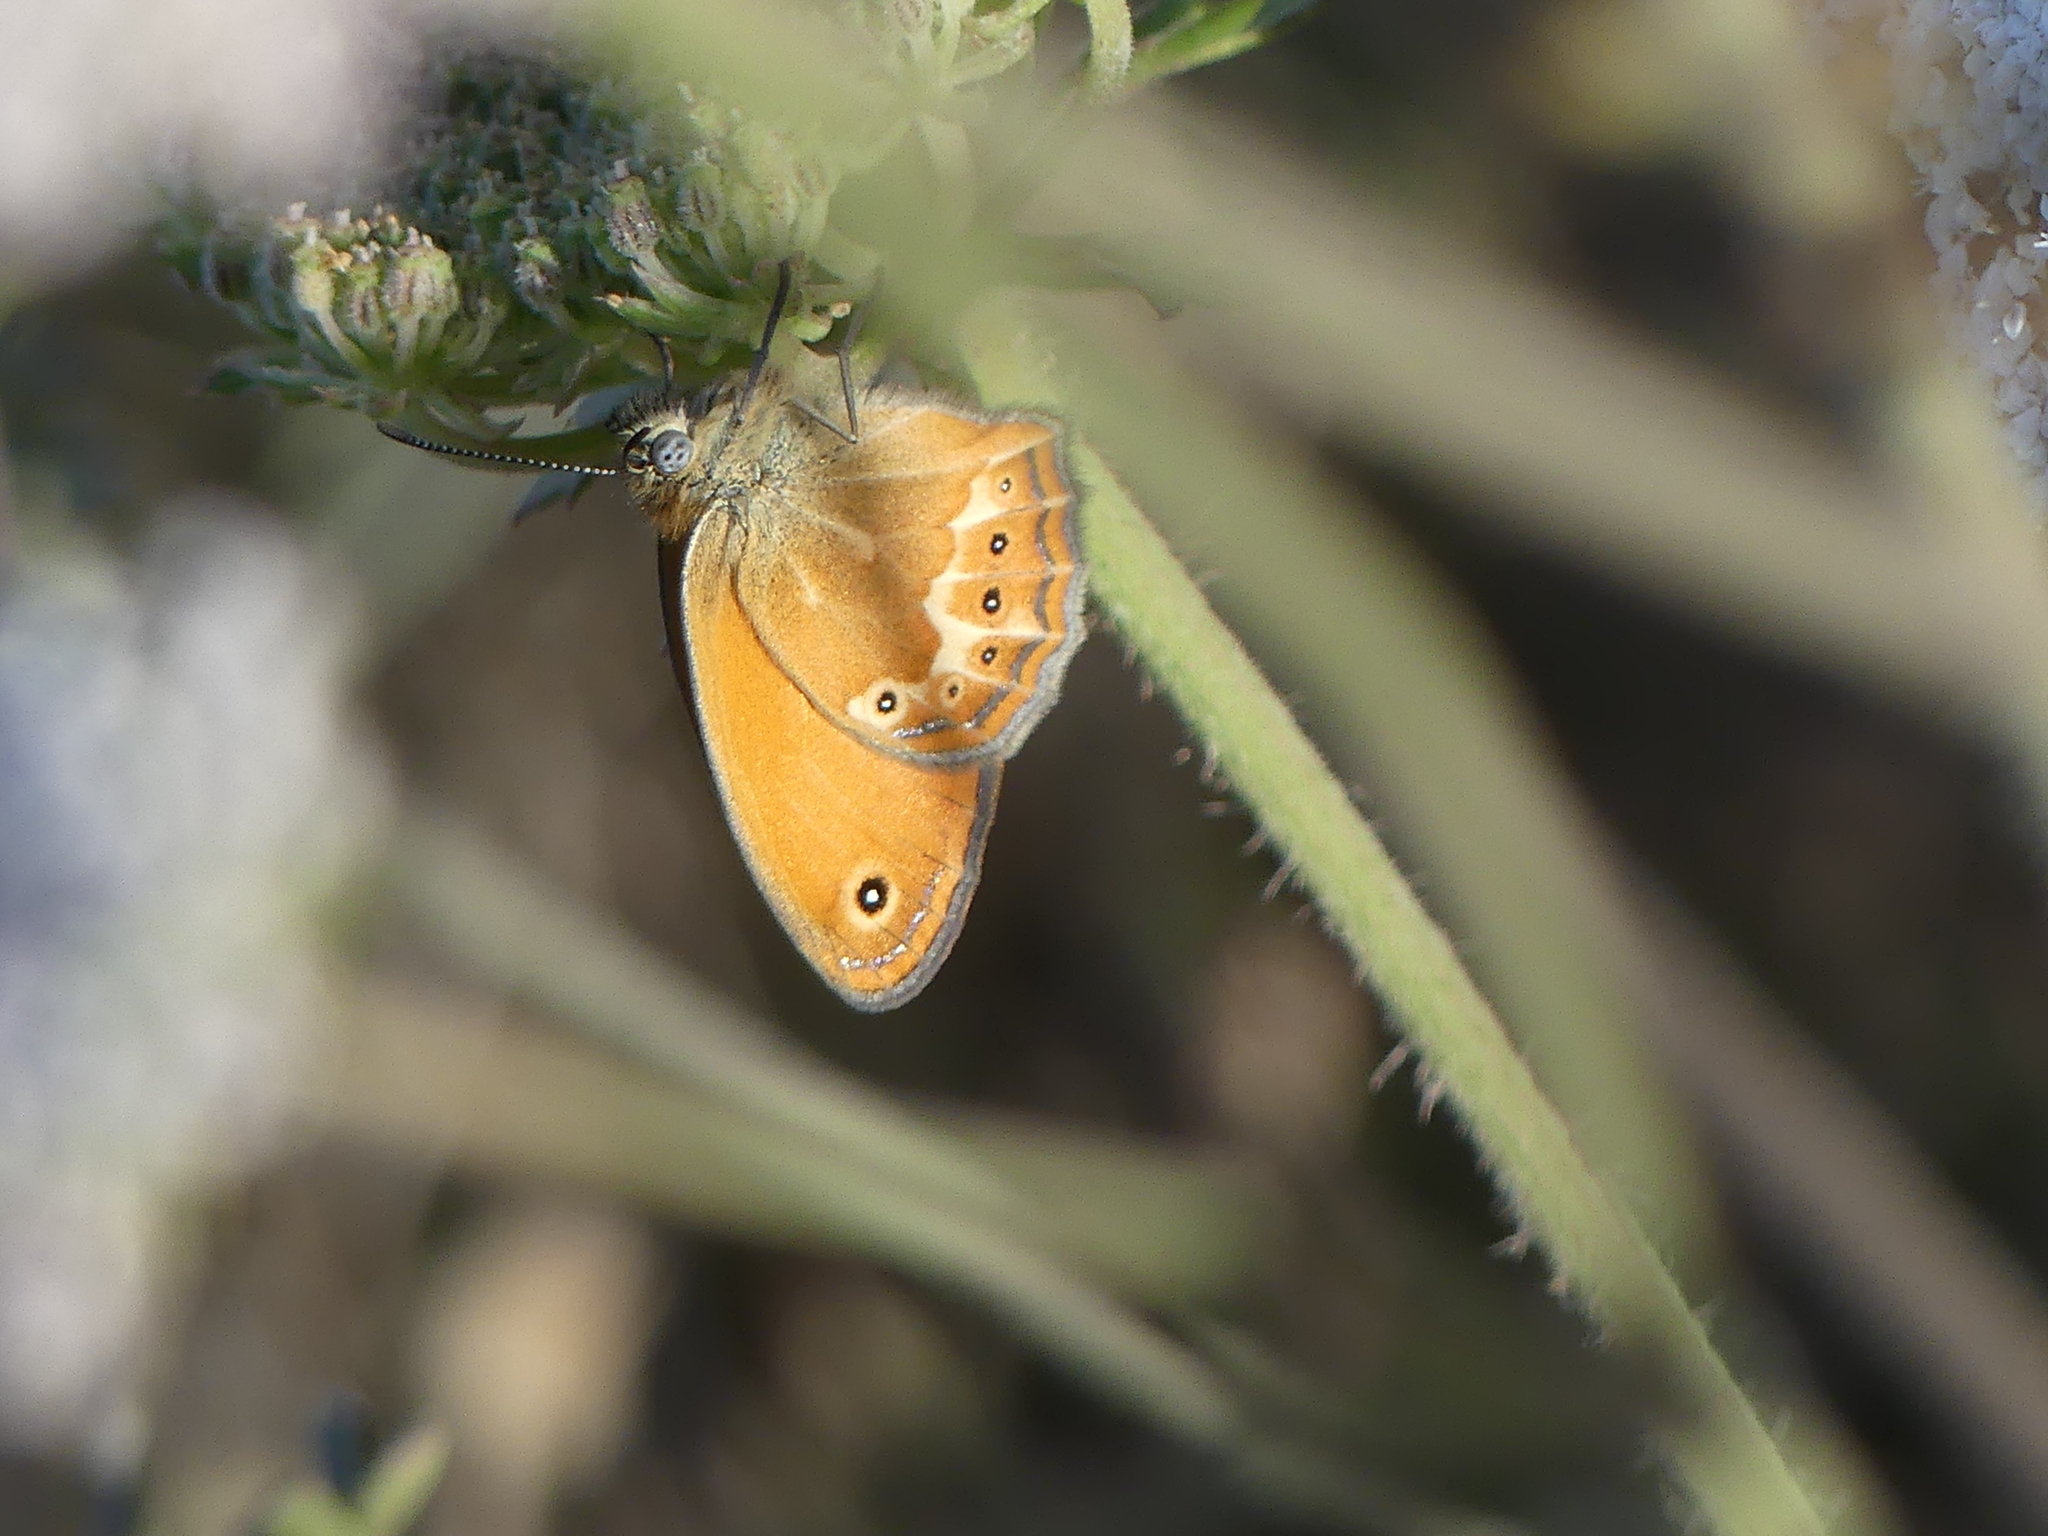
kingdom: Animalia
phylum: Arthropoda
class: Insecta
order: Lepidoptera
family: Nymphalidae
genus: Coenonympha
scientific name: Coenonympha corinna
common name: Corsican heath
